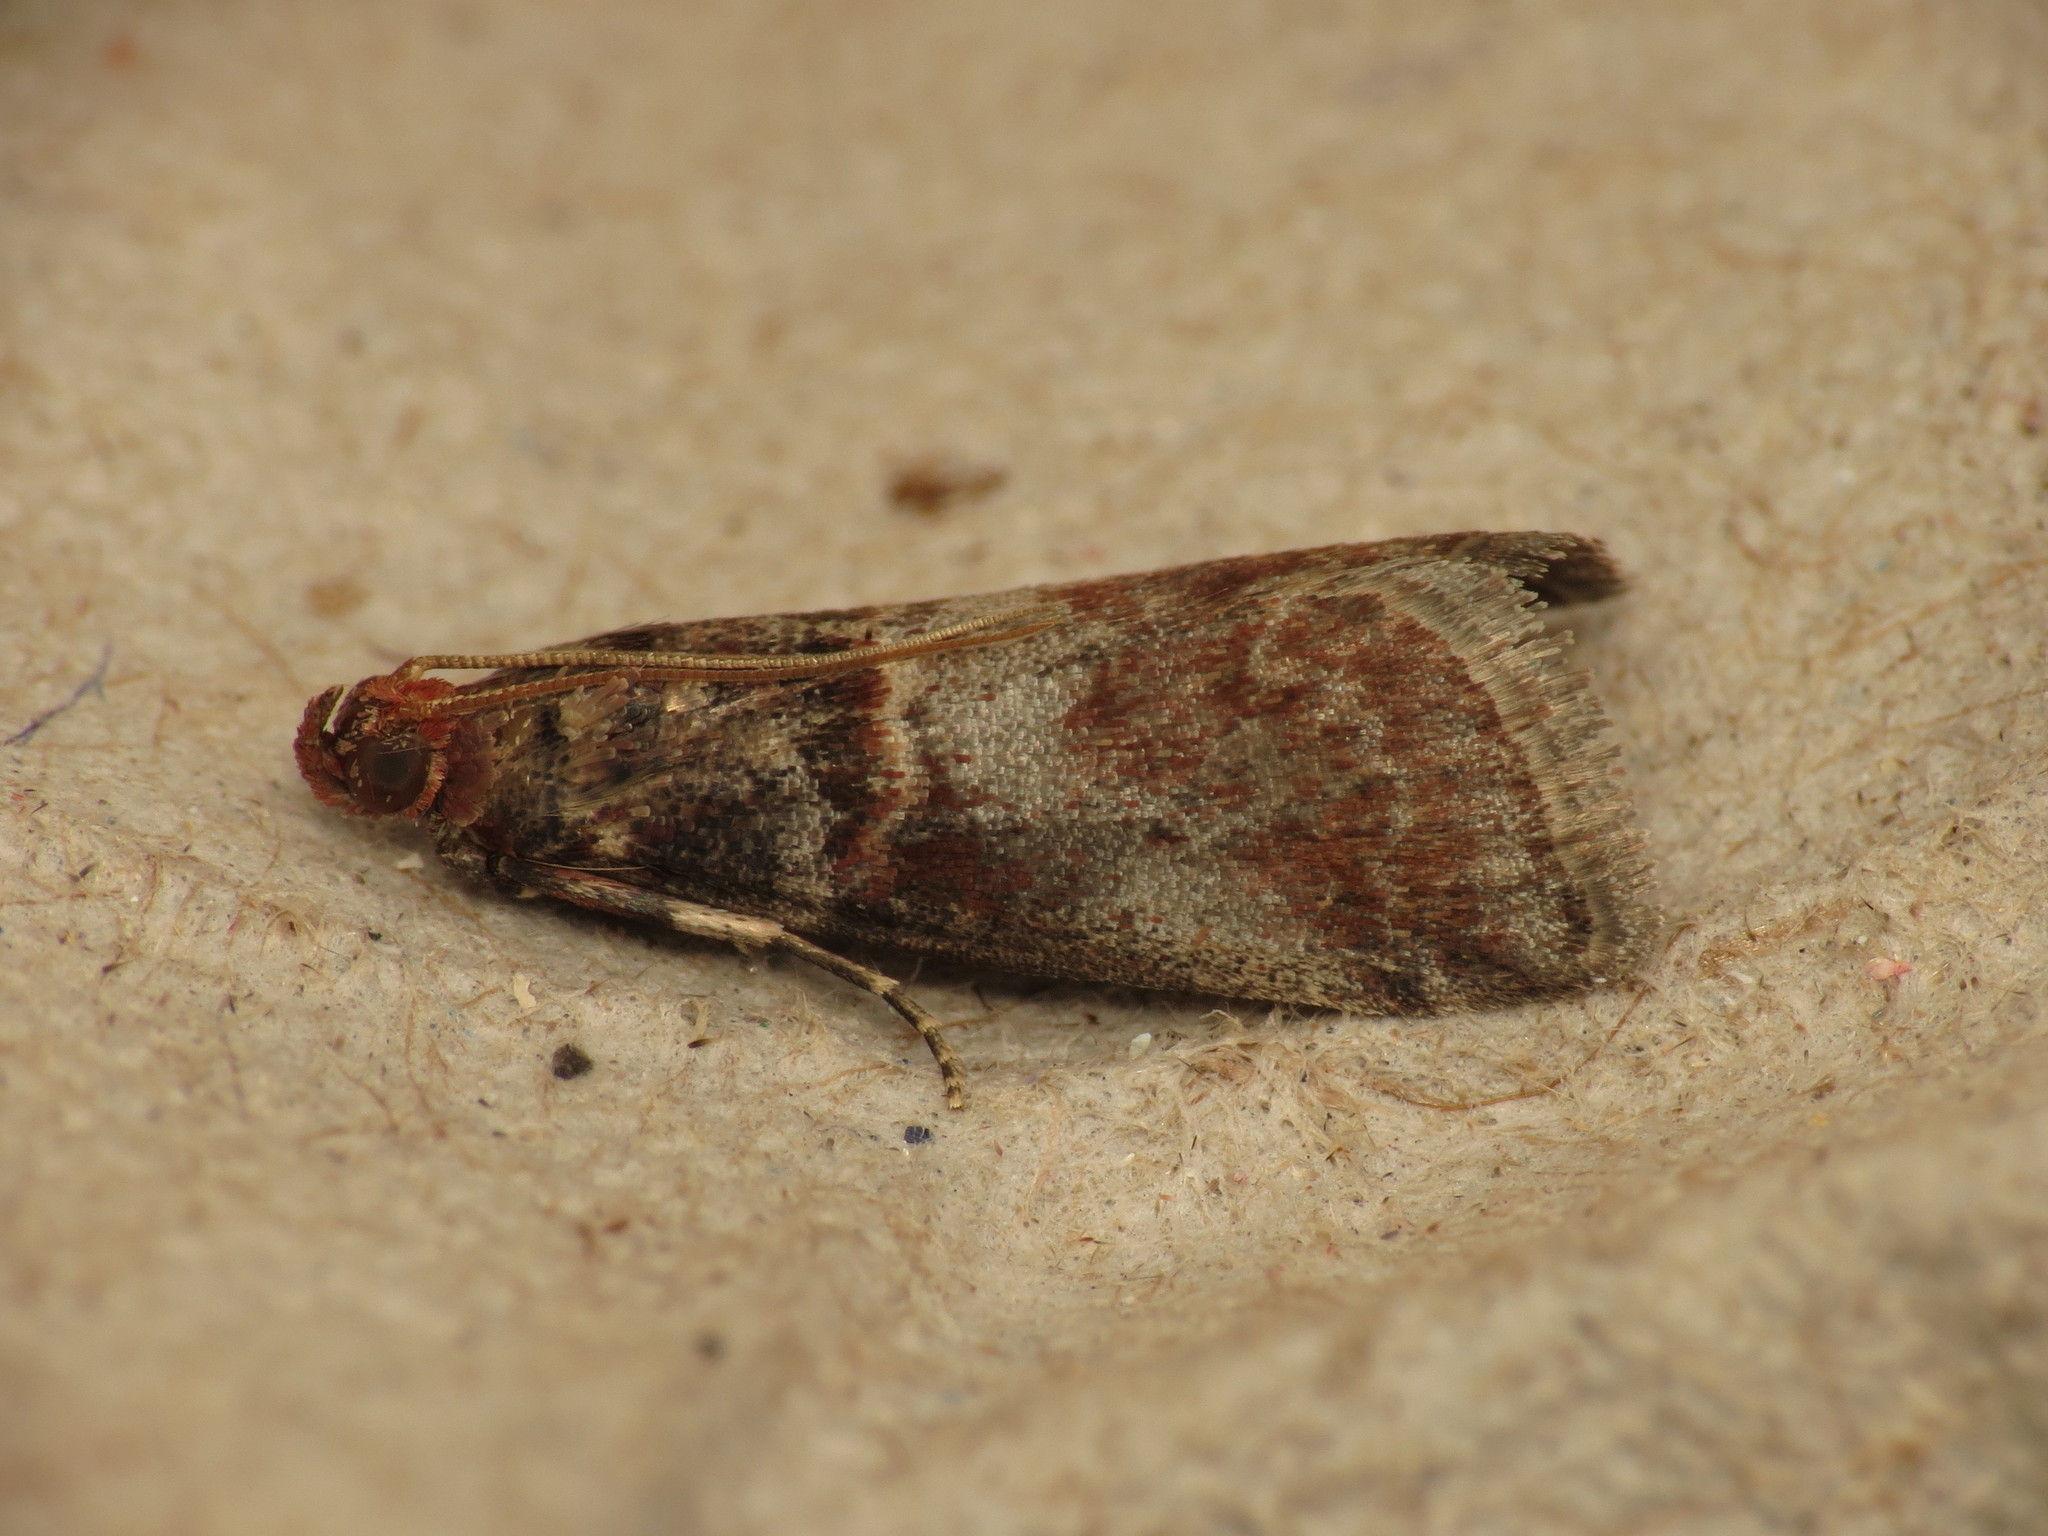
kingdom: Animalia
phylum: Arthropoda
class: Insecta
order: Lepidoptera
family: Pyralidae
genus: Acrobasis
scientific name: Acrobasis advenella
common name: Grey knot-horn
